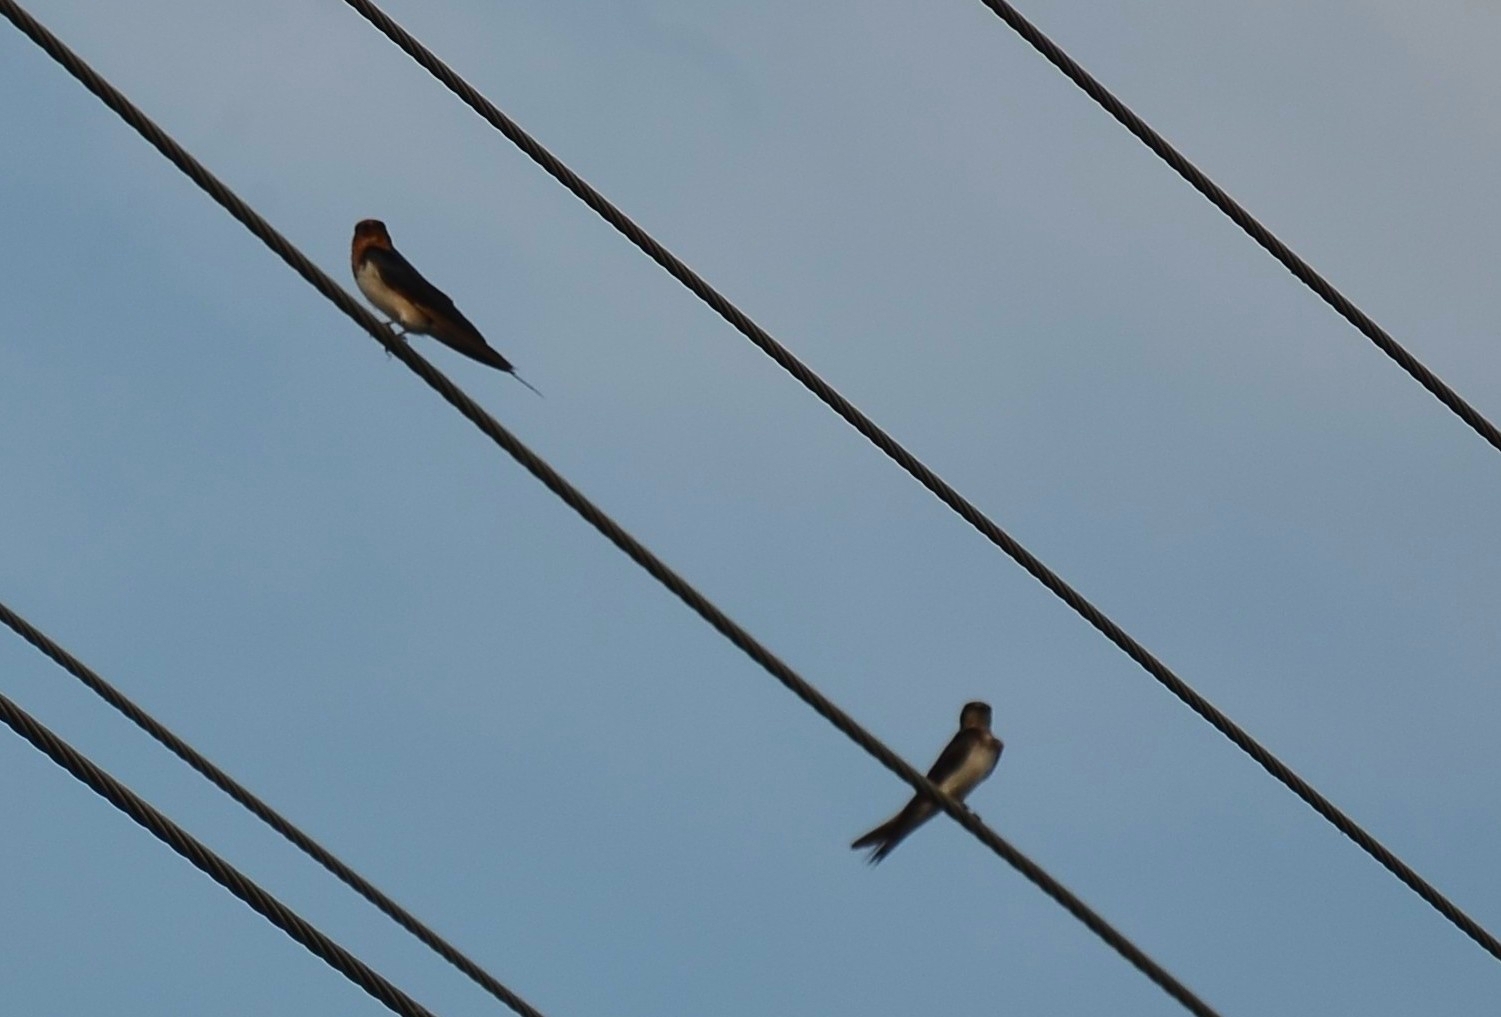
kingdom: Animalia
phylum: Chordata
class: Aves
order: Passeriformes
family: Hirundinidae
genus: Hirundo
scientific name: Hirundo rustica
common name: Barn swallow
